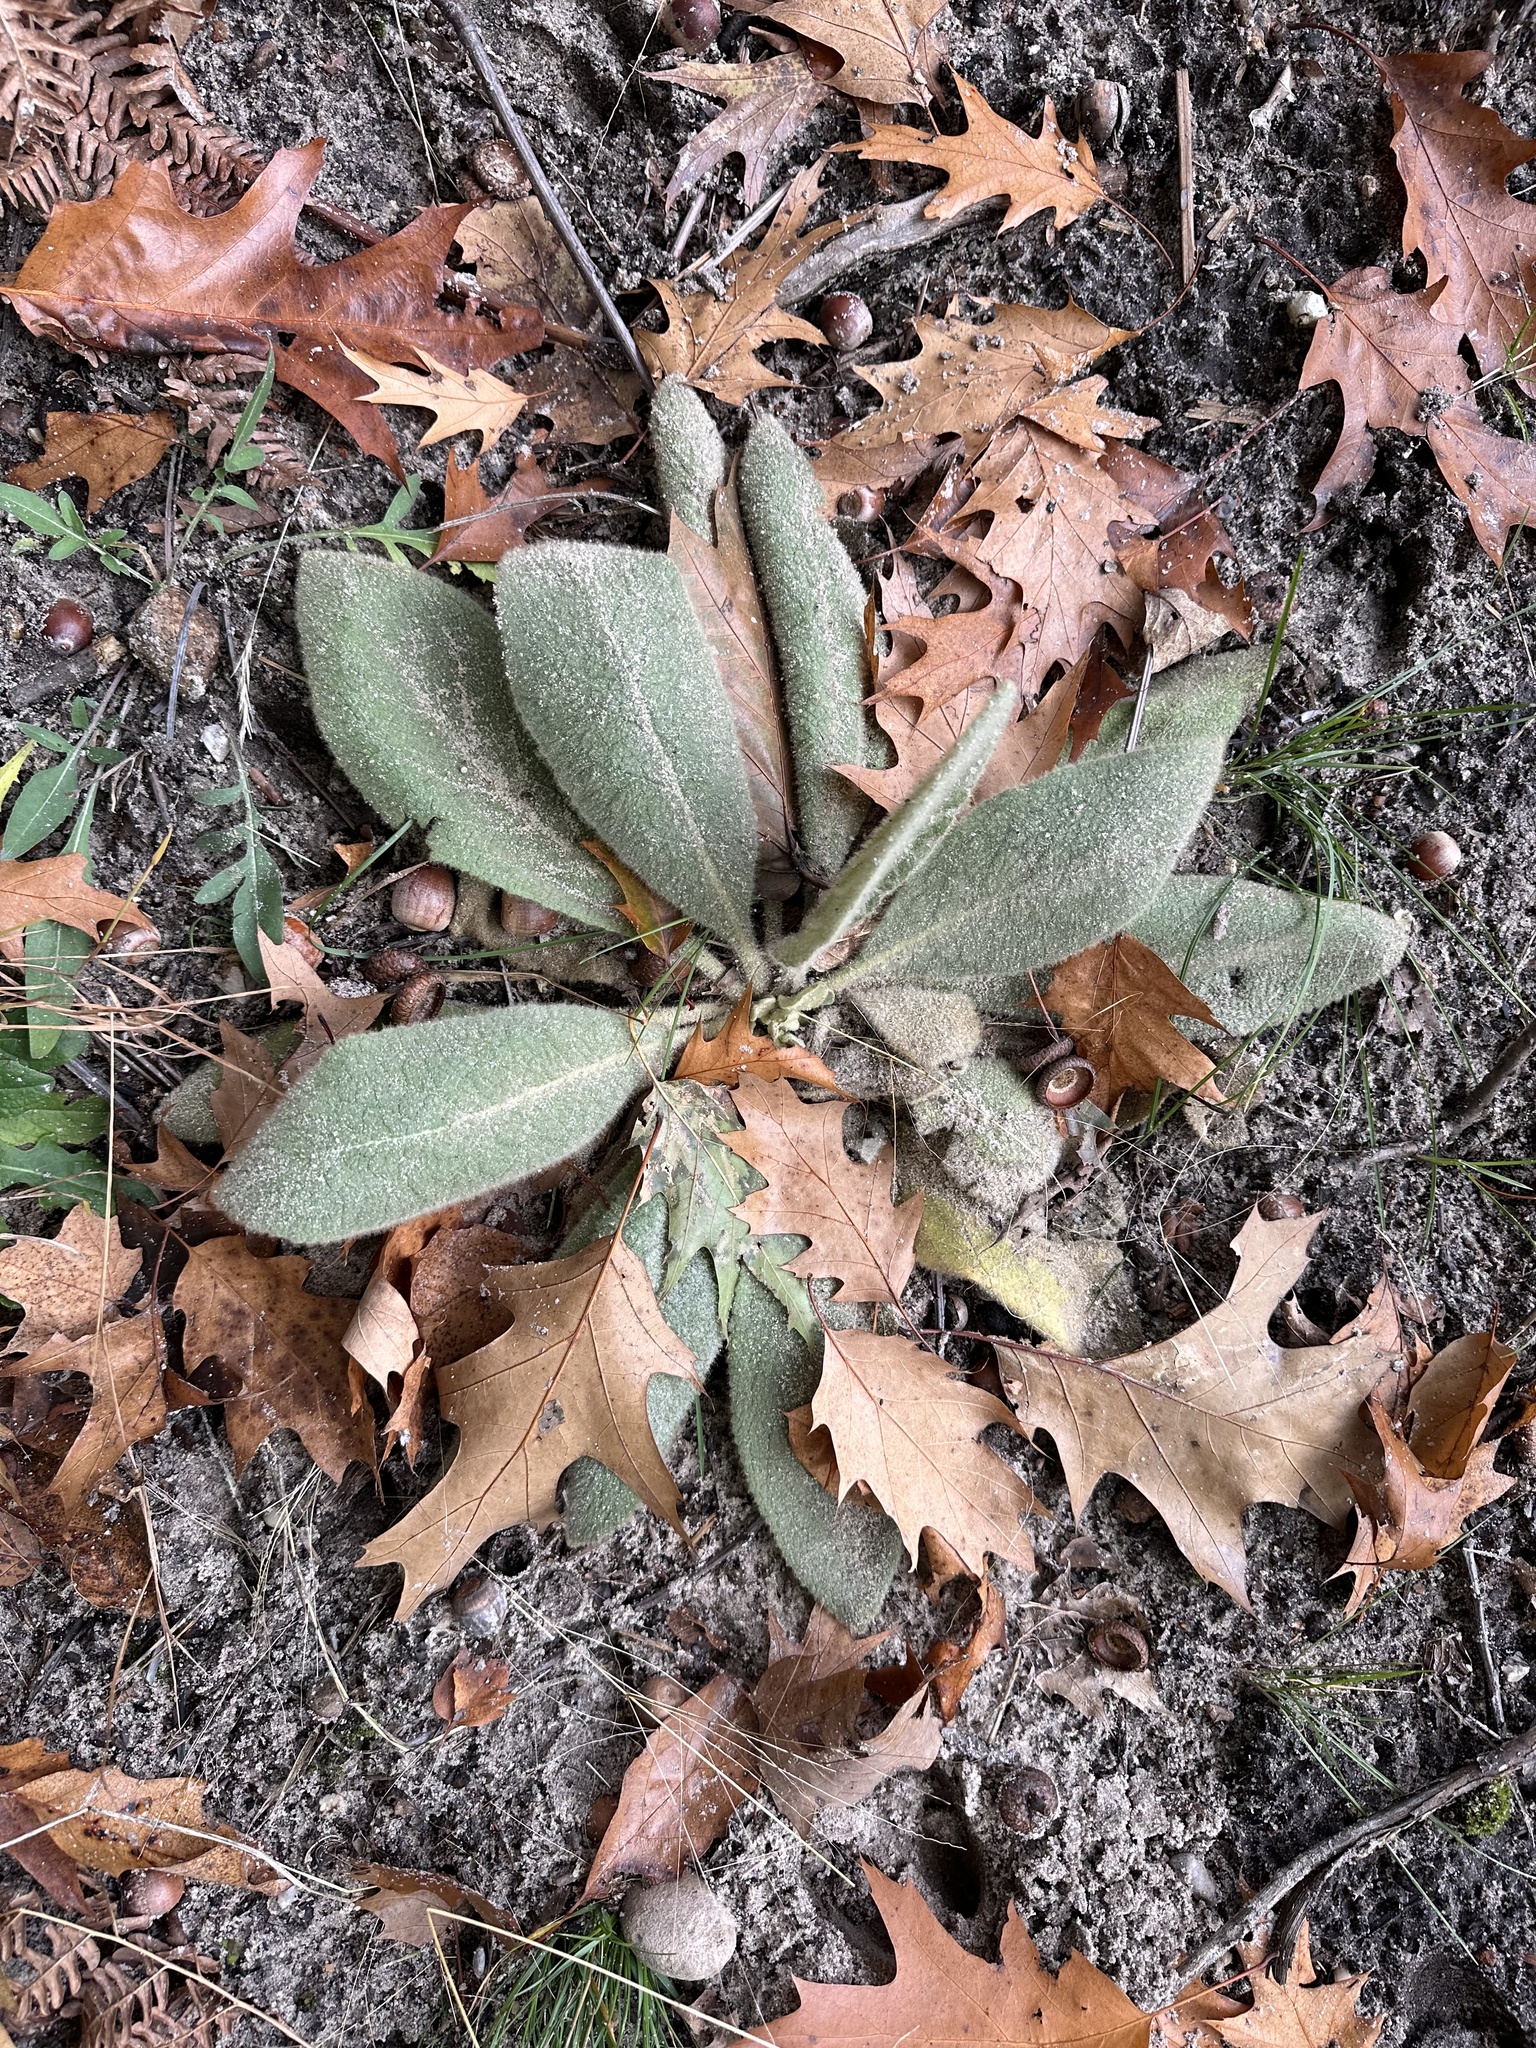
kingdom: Plantae
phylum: Tracheophyta
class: Magnoliopsida
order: Lamiales
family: Scrophulariaceae
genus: Verbascum
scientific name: Verbascum thapsus
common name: Common mullein
